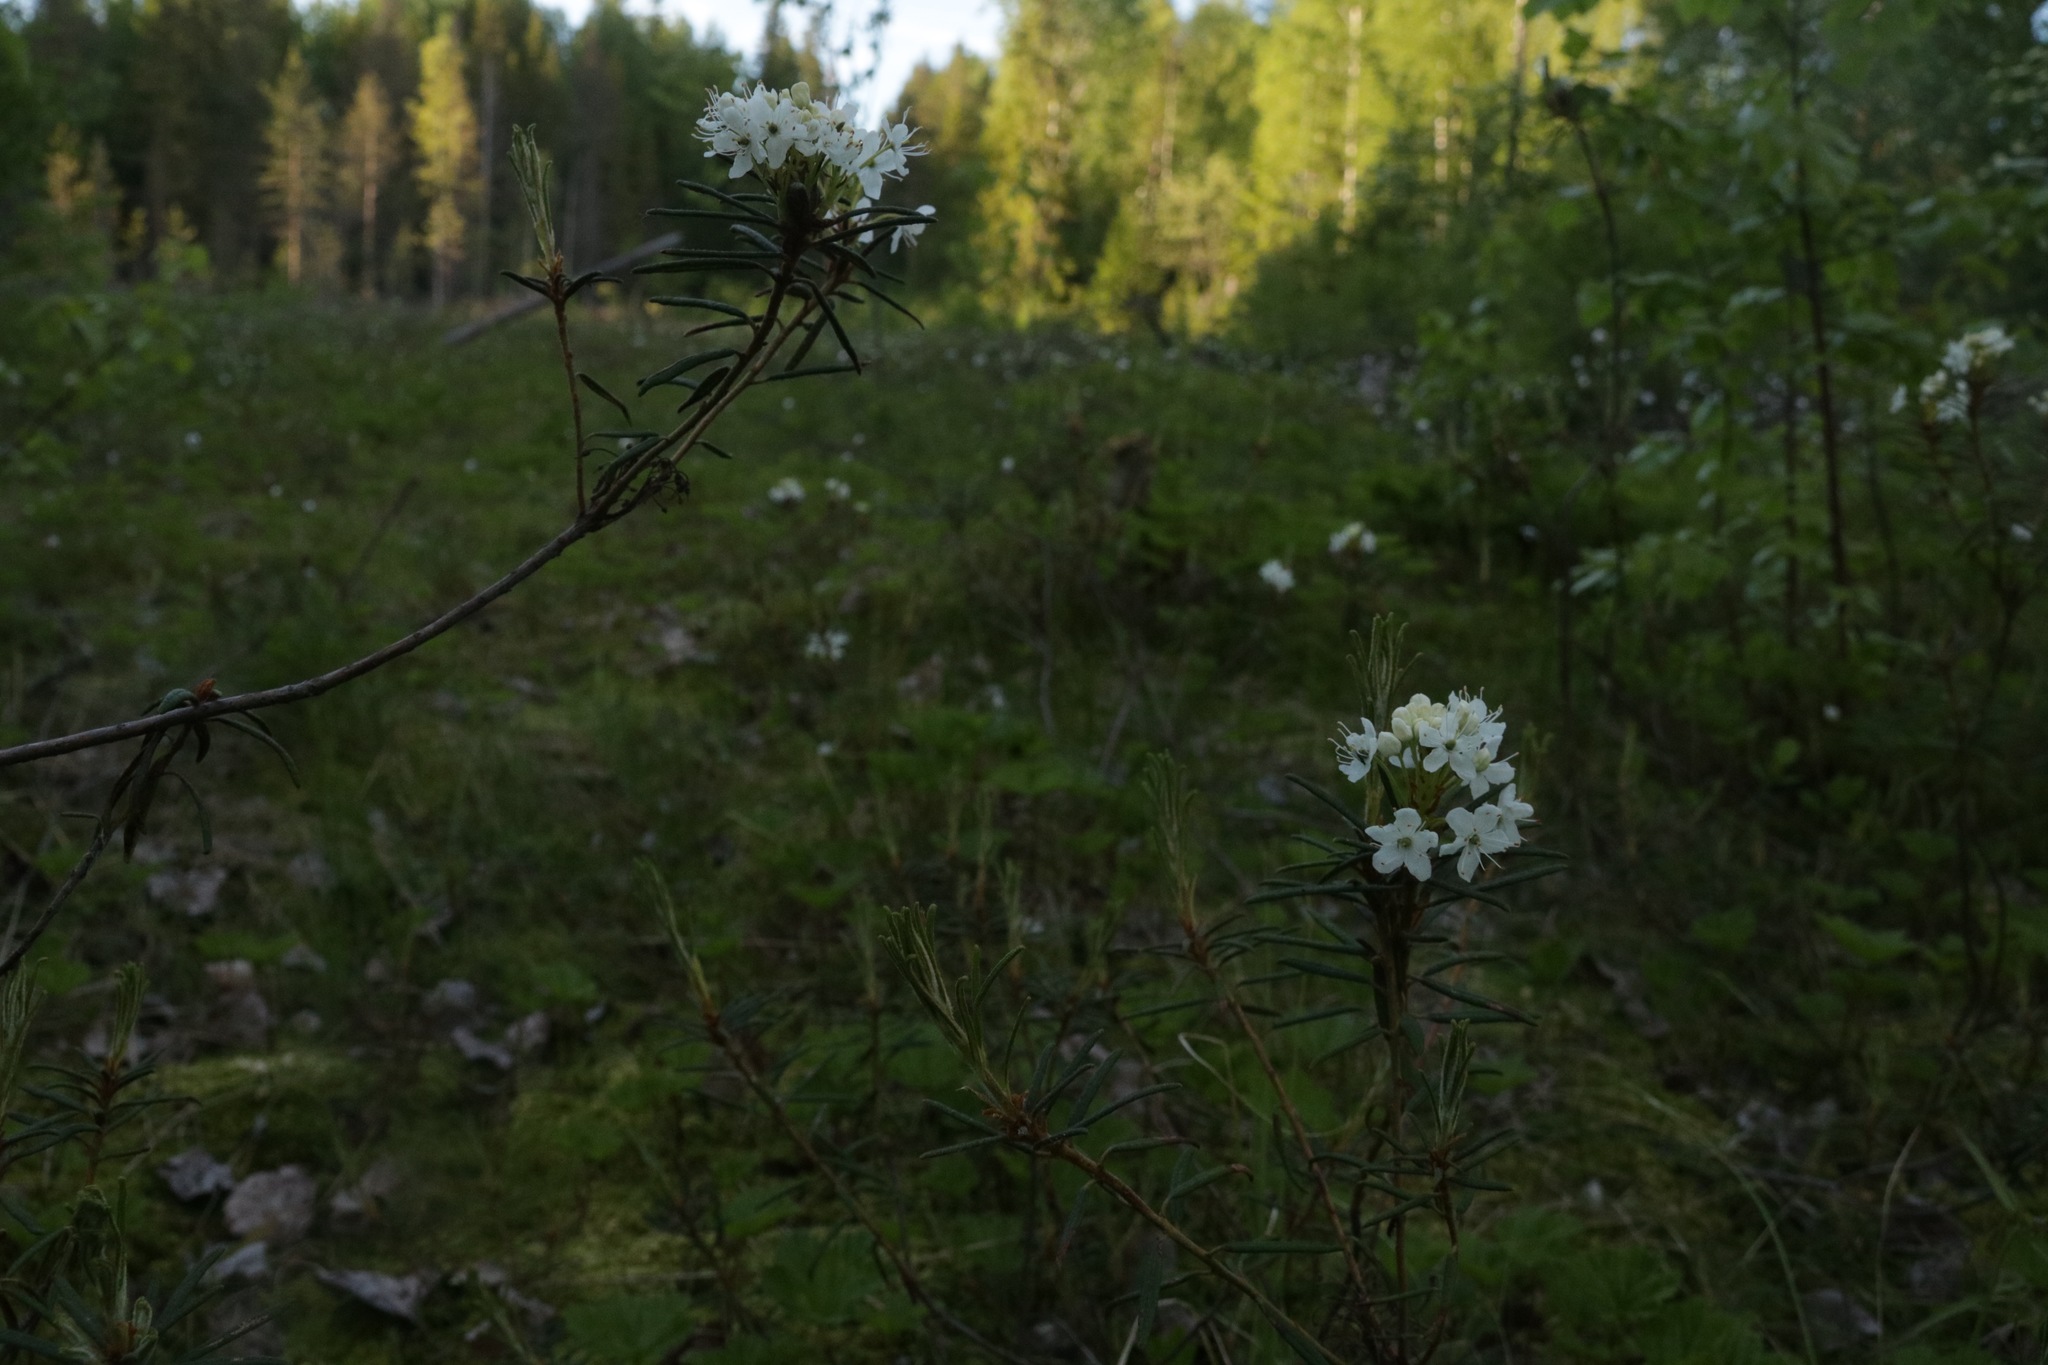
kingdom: Plantae
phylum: Tracheophyta
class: Magnoliopsida
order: Ericales
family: Ericaceae
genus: Rhododendron
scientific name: Rhododendron tomentosum
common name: Marsh labrador tea
